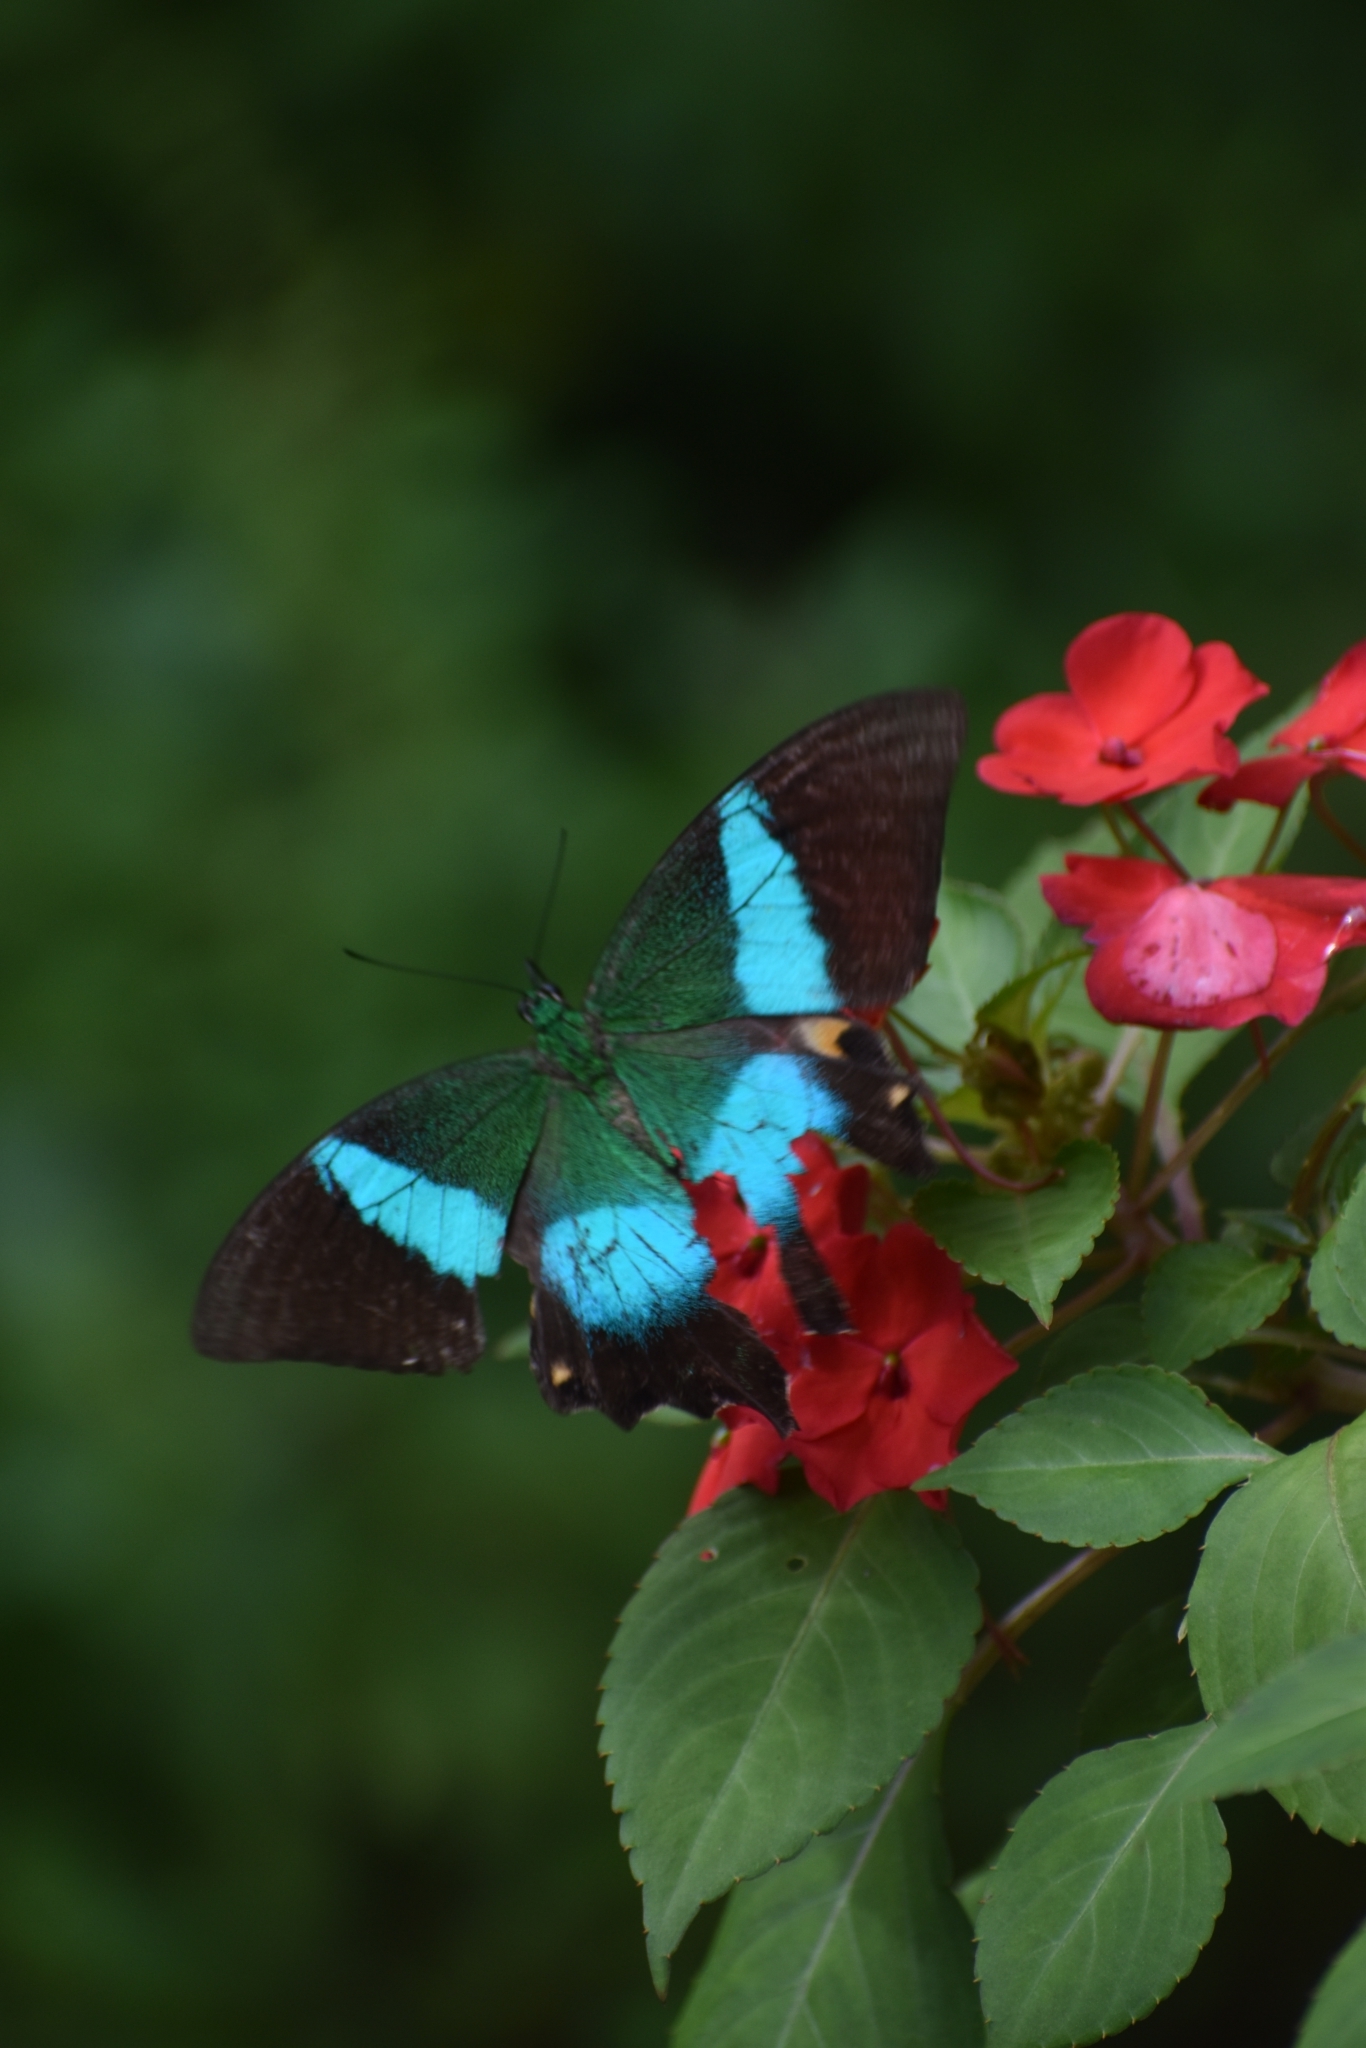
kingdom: Animalia
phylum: Arthropoda
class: Insecta
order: Lepidoptera
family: Papilionidae
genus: Papilio
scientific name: Papilio buddha
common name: Malabar banded peacock
